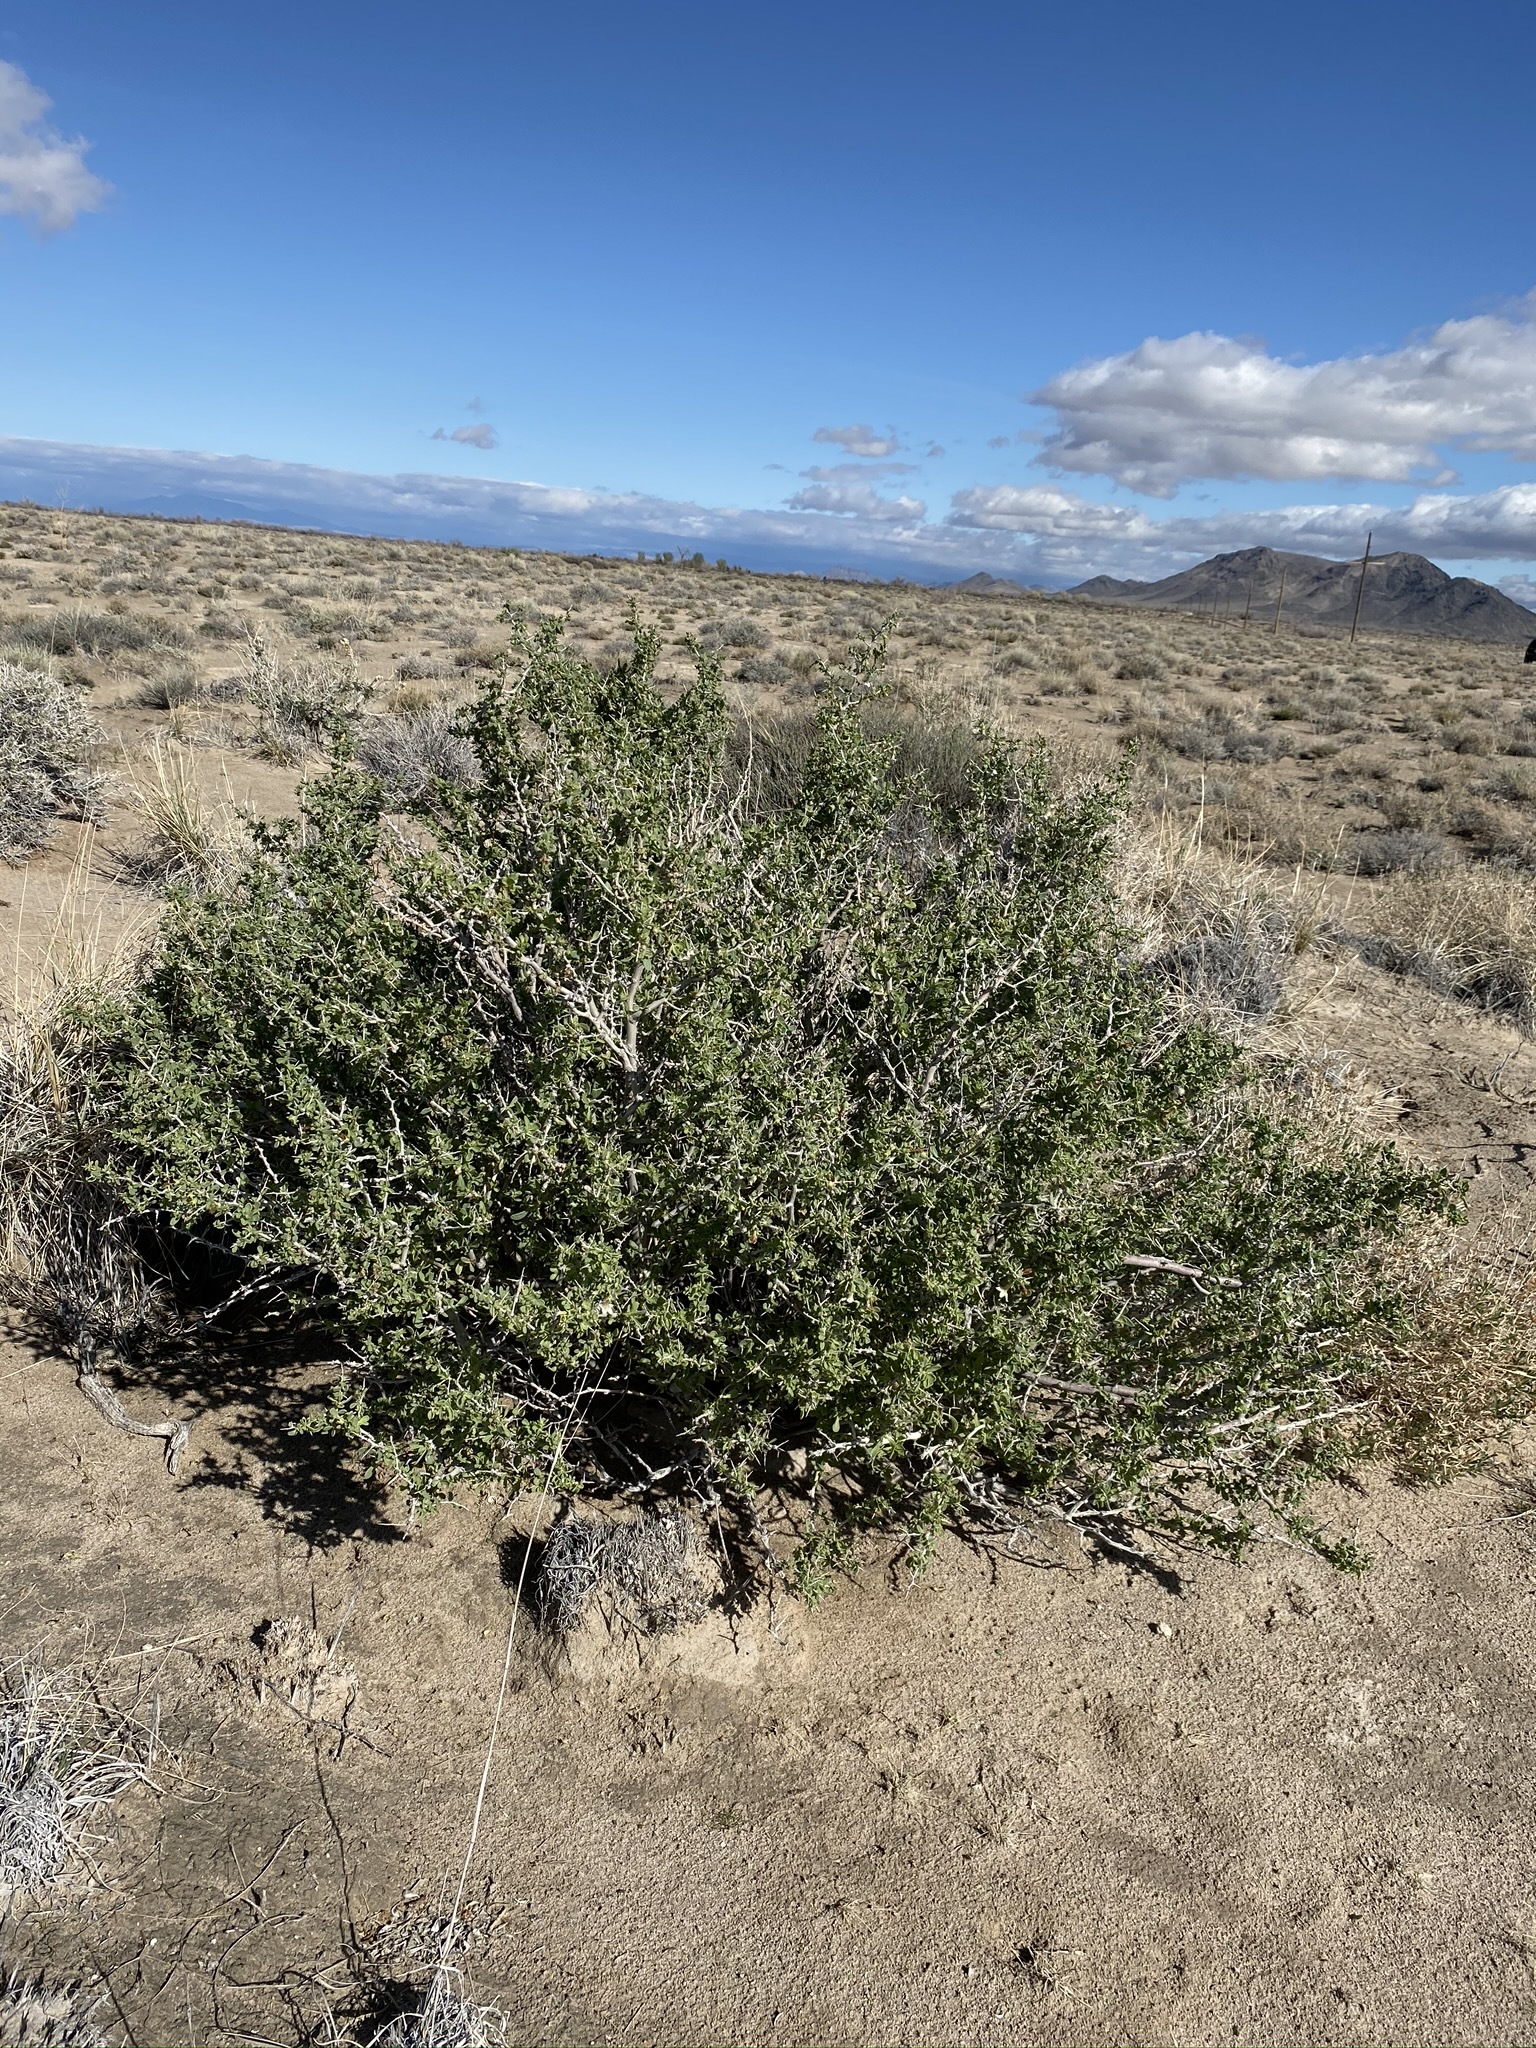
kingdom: Plantae
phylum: Tracheophyta
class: Magnoliopsida
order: Solanales
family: Solanaceae
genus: Lycium
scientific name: Lycium pallidum
